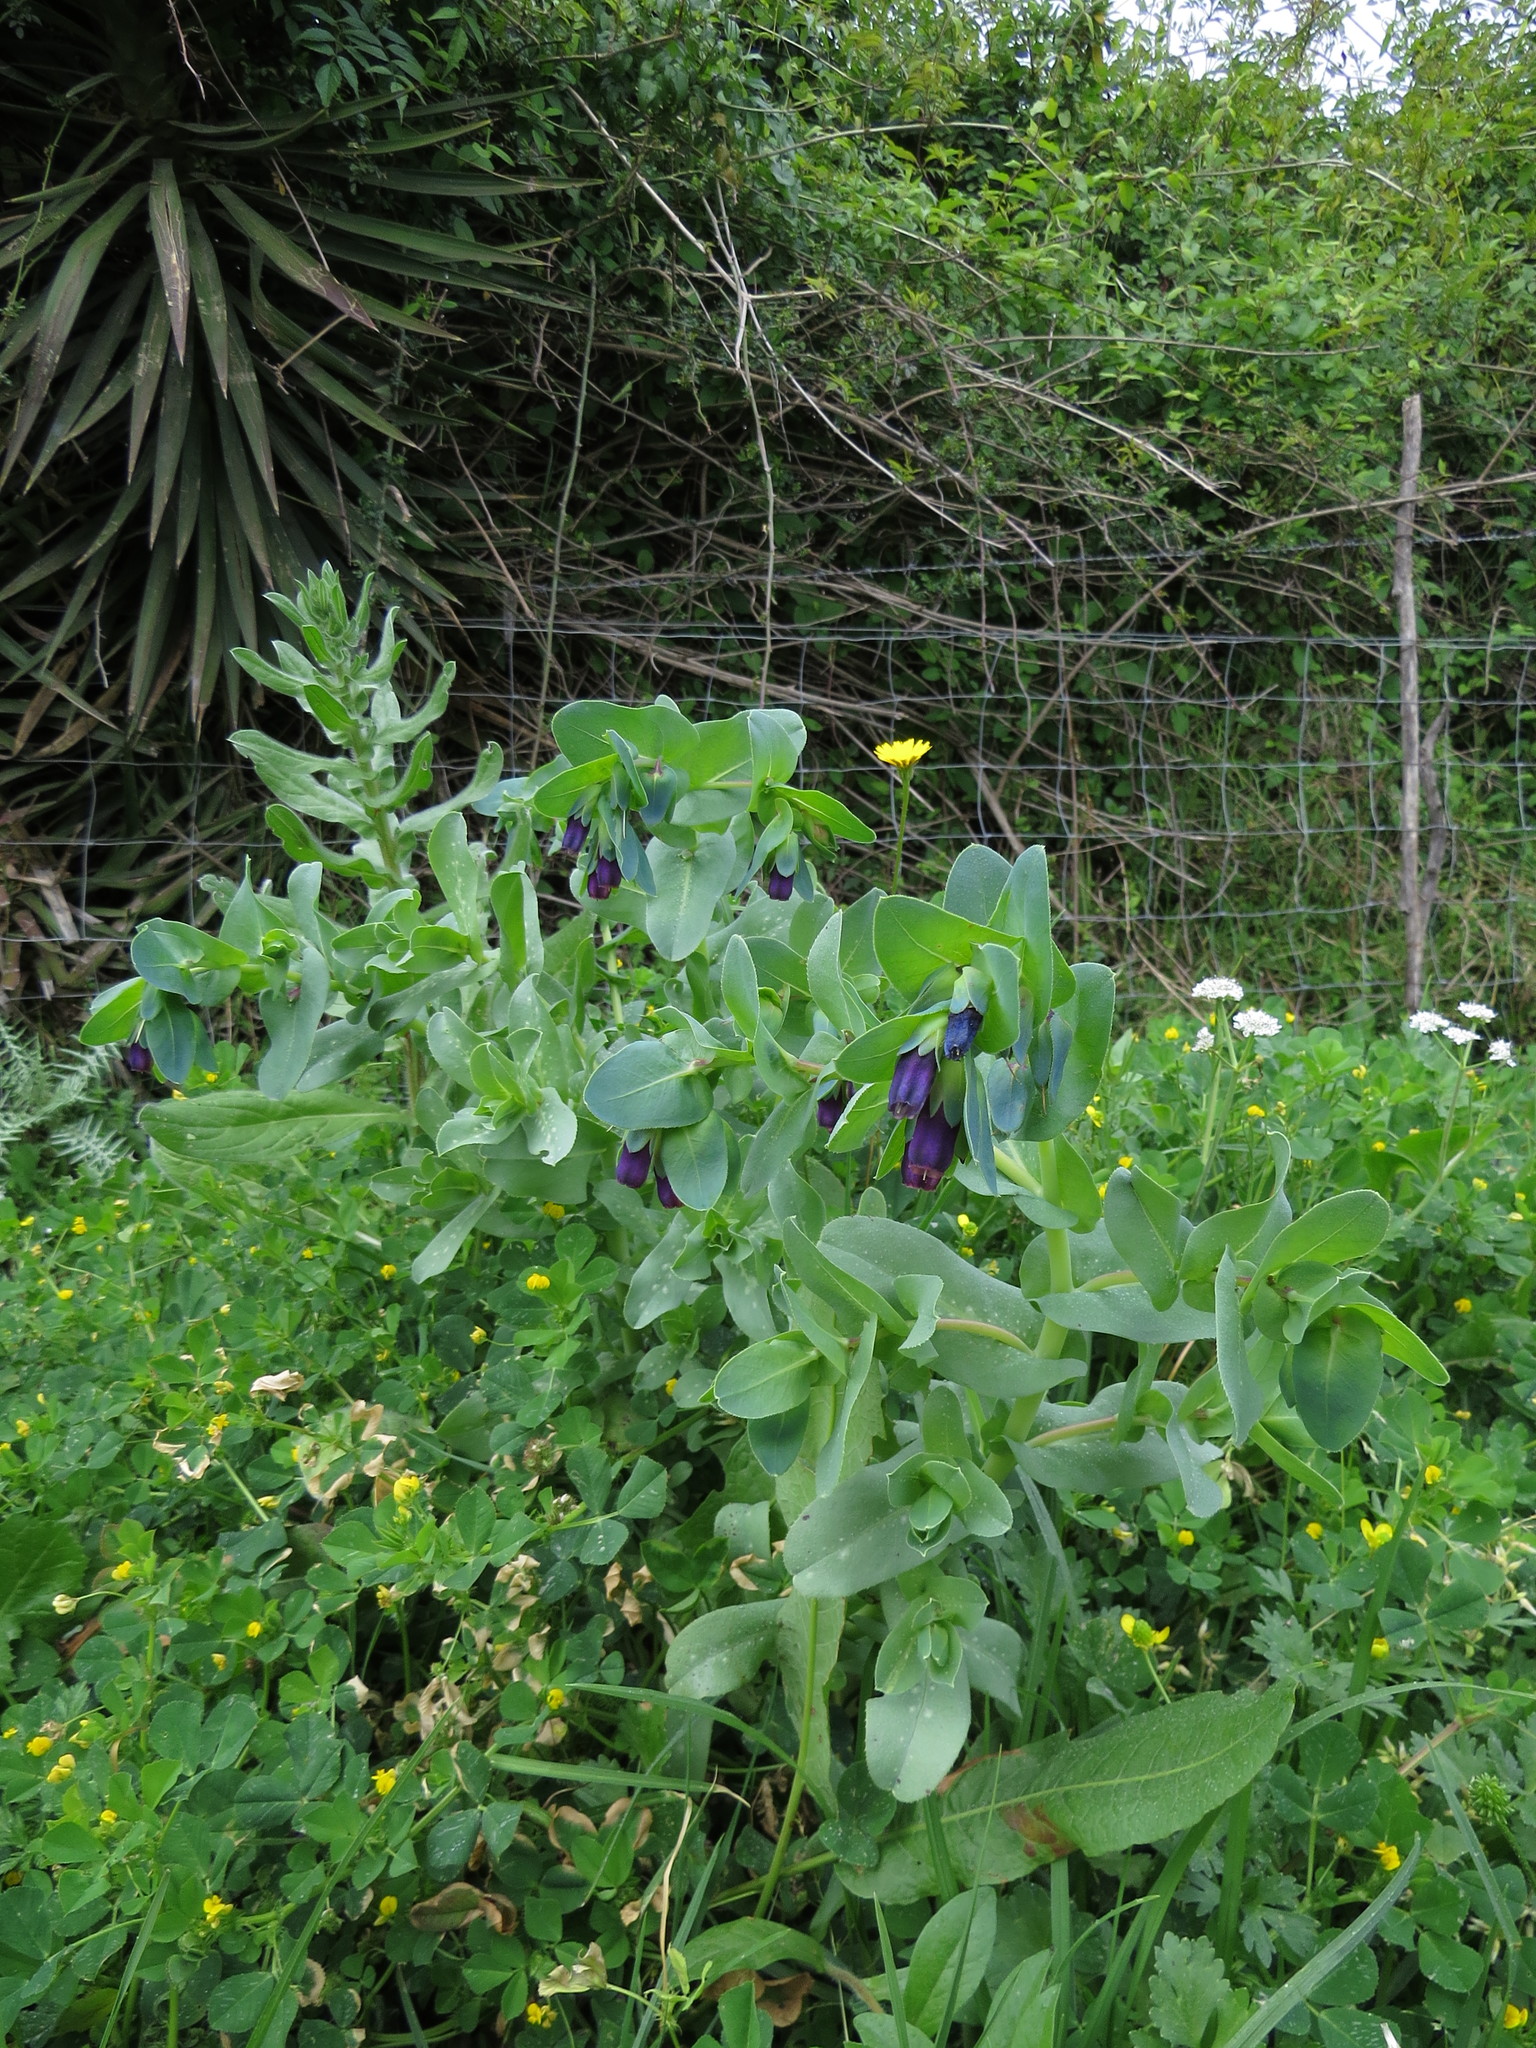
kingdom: Plantae
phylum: Tracheophyta
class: Magnoliopsida
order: Boraginales
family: Boraginaceae
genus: Cerinthe
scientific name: Cerinthe major
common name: Greater honeywort
